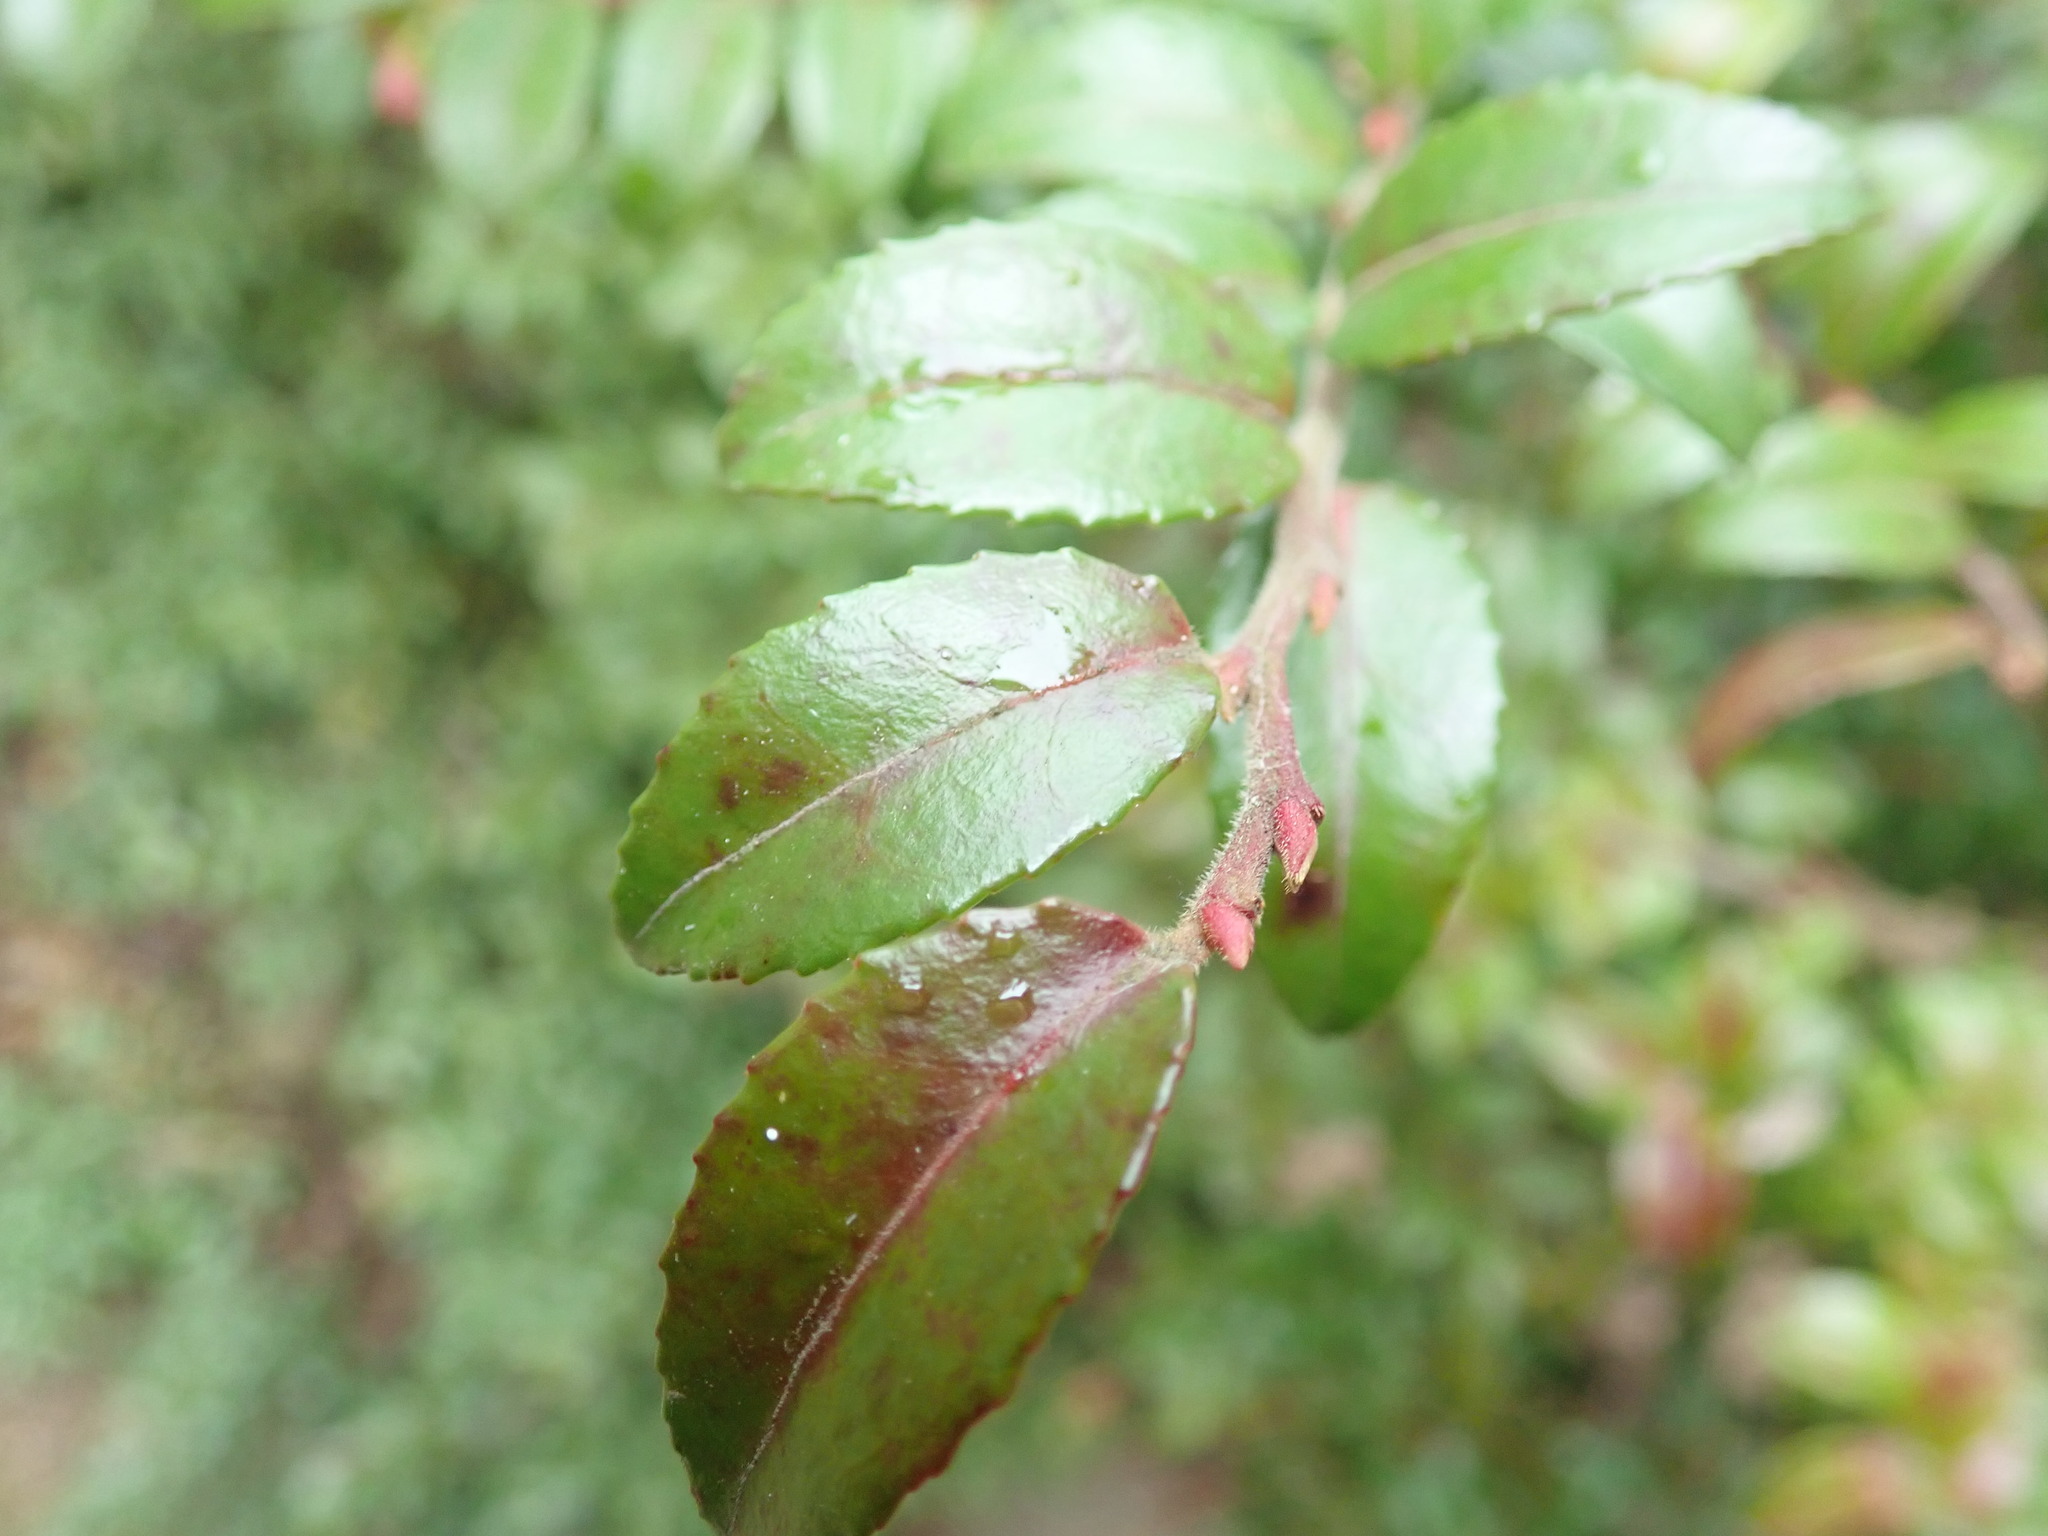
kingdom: Plantae
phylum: Tracheophyta
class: Magnoliopsida
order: Ericales
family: Ericaceae
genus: Vaccinium
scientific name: Vaccinium ovatum
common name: California-huckleberry
